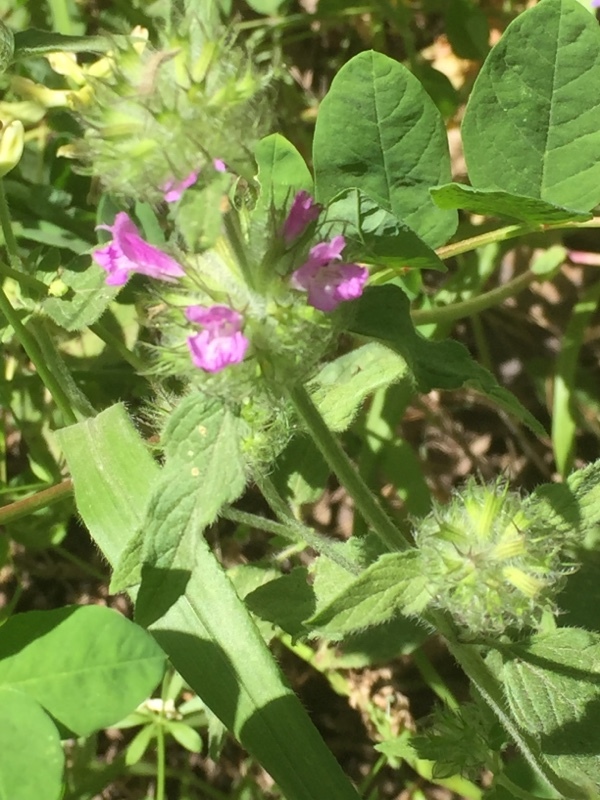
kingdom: Plantae
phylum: Tracheophyta
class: Magnoliopsida
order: Lamiales
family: Lamiaceae
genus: Clinopodium
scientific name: Clinopodium vulgare
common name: Wild basil
